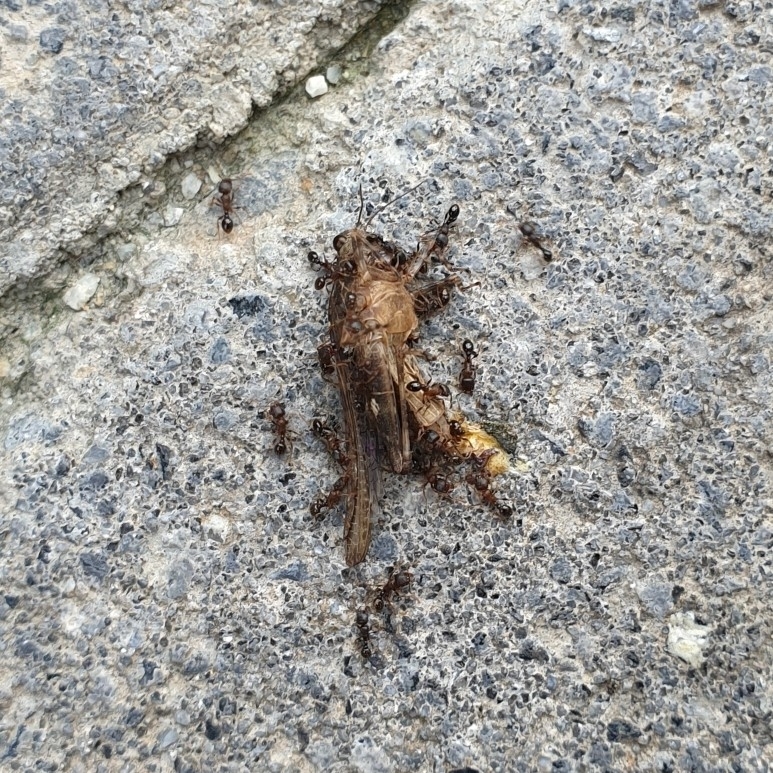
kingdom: Animalia
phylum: Arthropoda
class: Insecta
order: Hymenoptera
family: Formicidae
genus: Tetramorium
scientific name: Tetramorium tsushimae
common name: Ant
